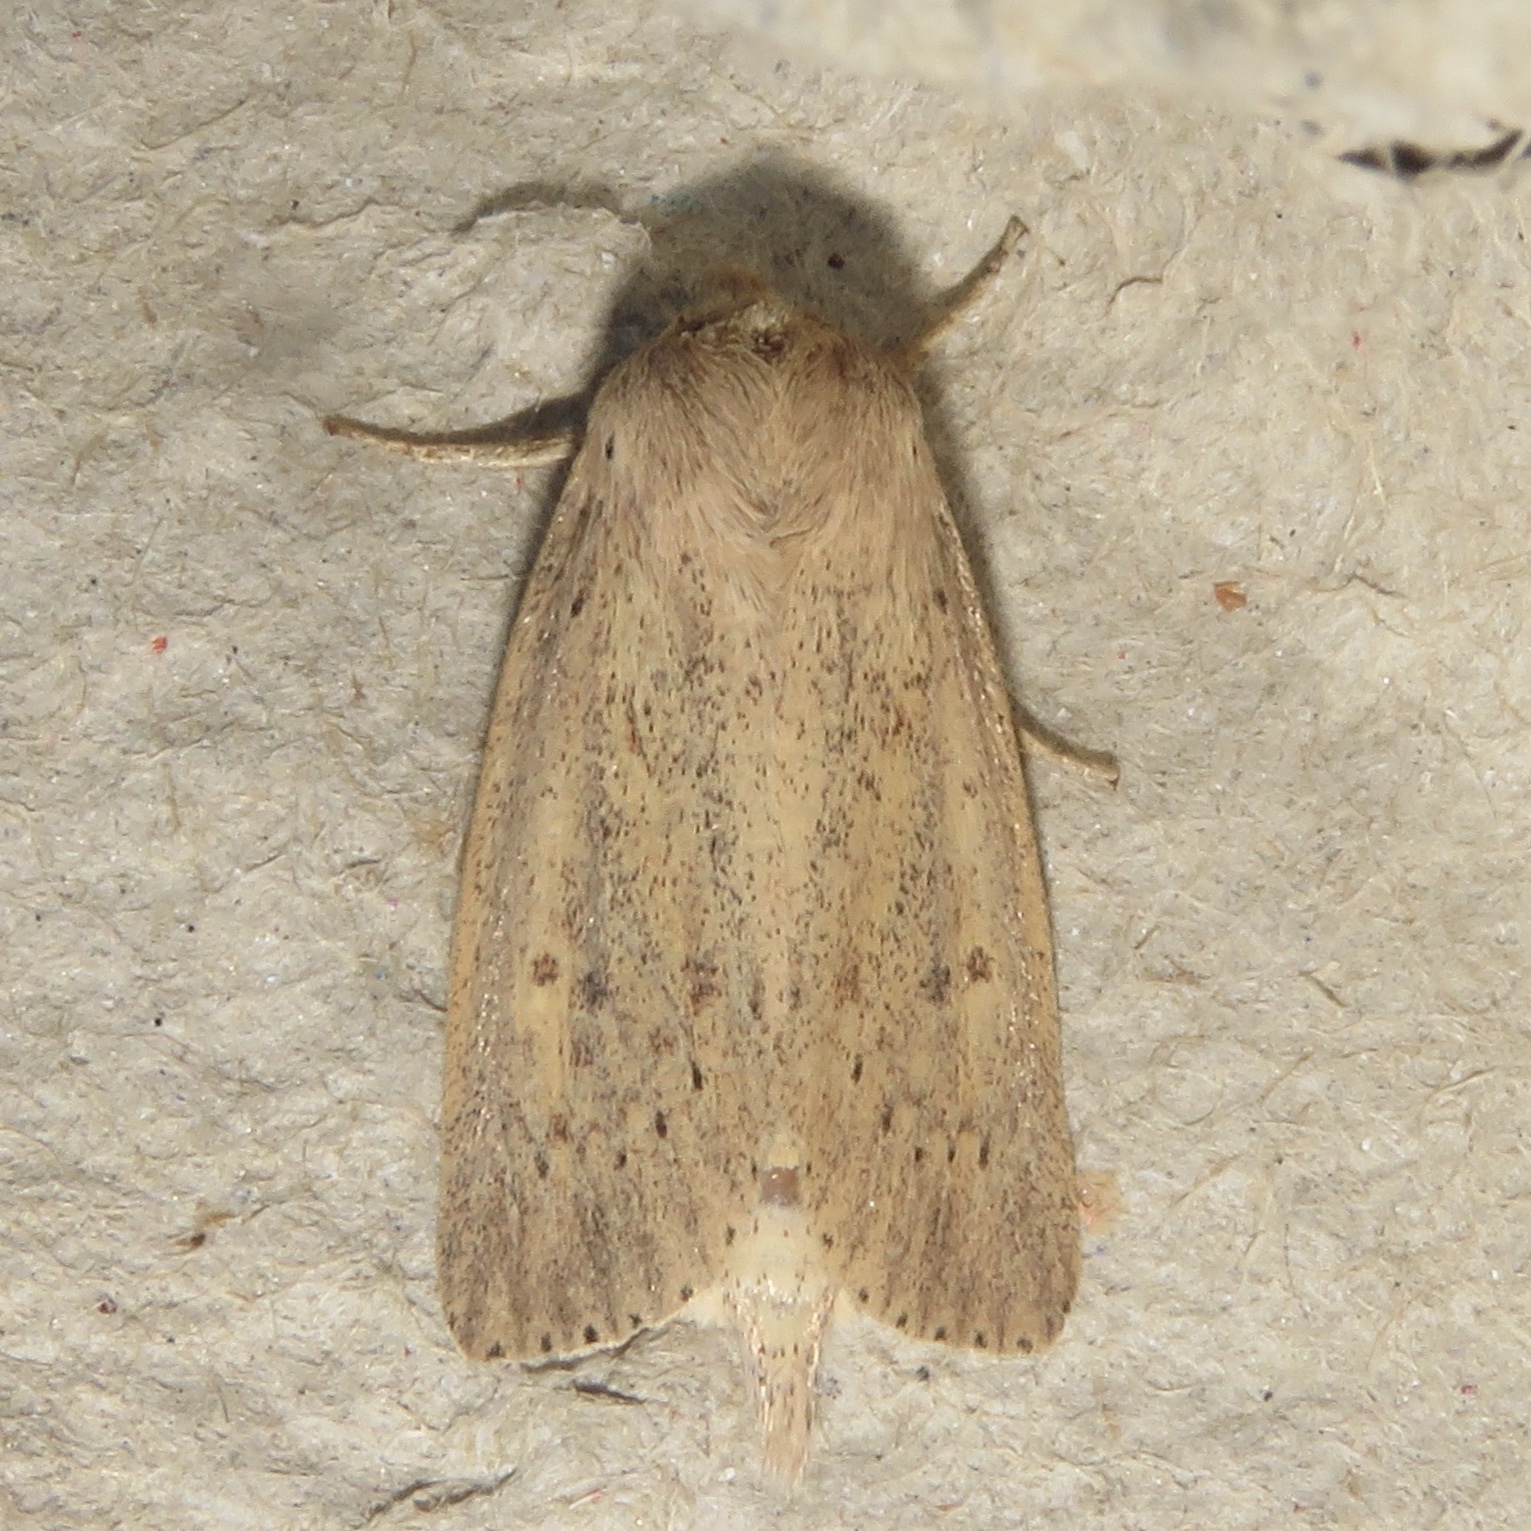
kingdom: Animalia
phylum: Arthropoda
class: Insecta
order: Lepidoptera
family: Noctuidae
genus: Globia
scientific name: Globia oblonga
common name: Oblong sedge borer moth
